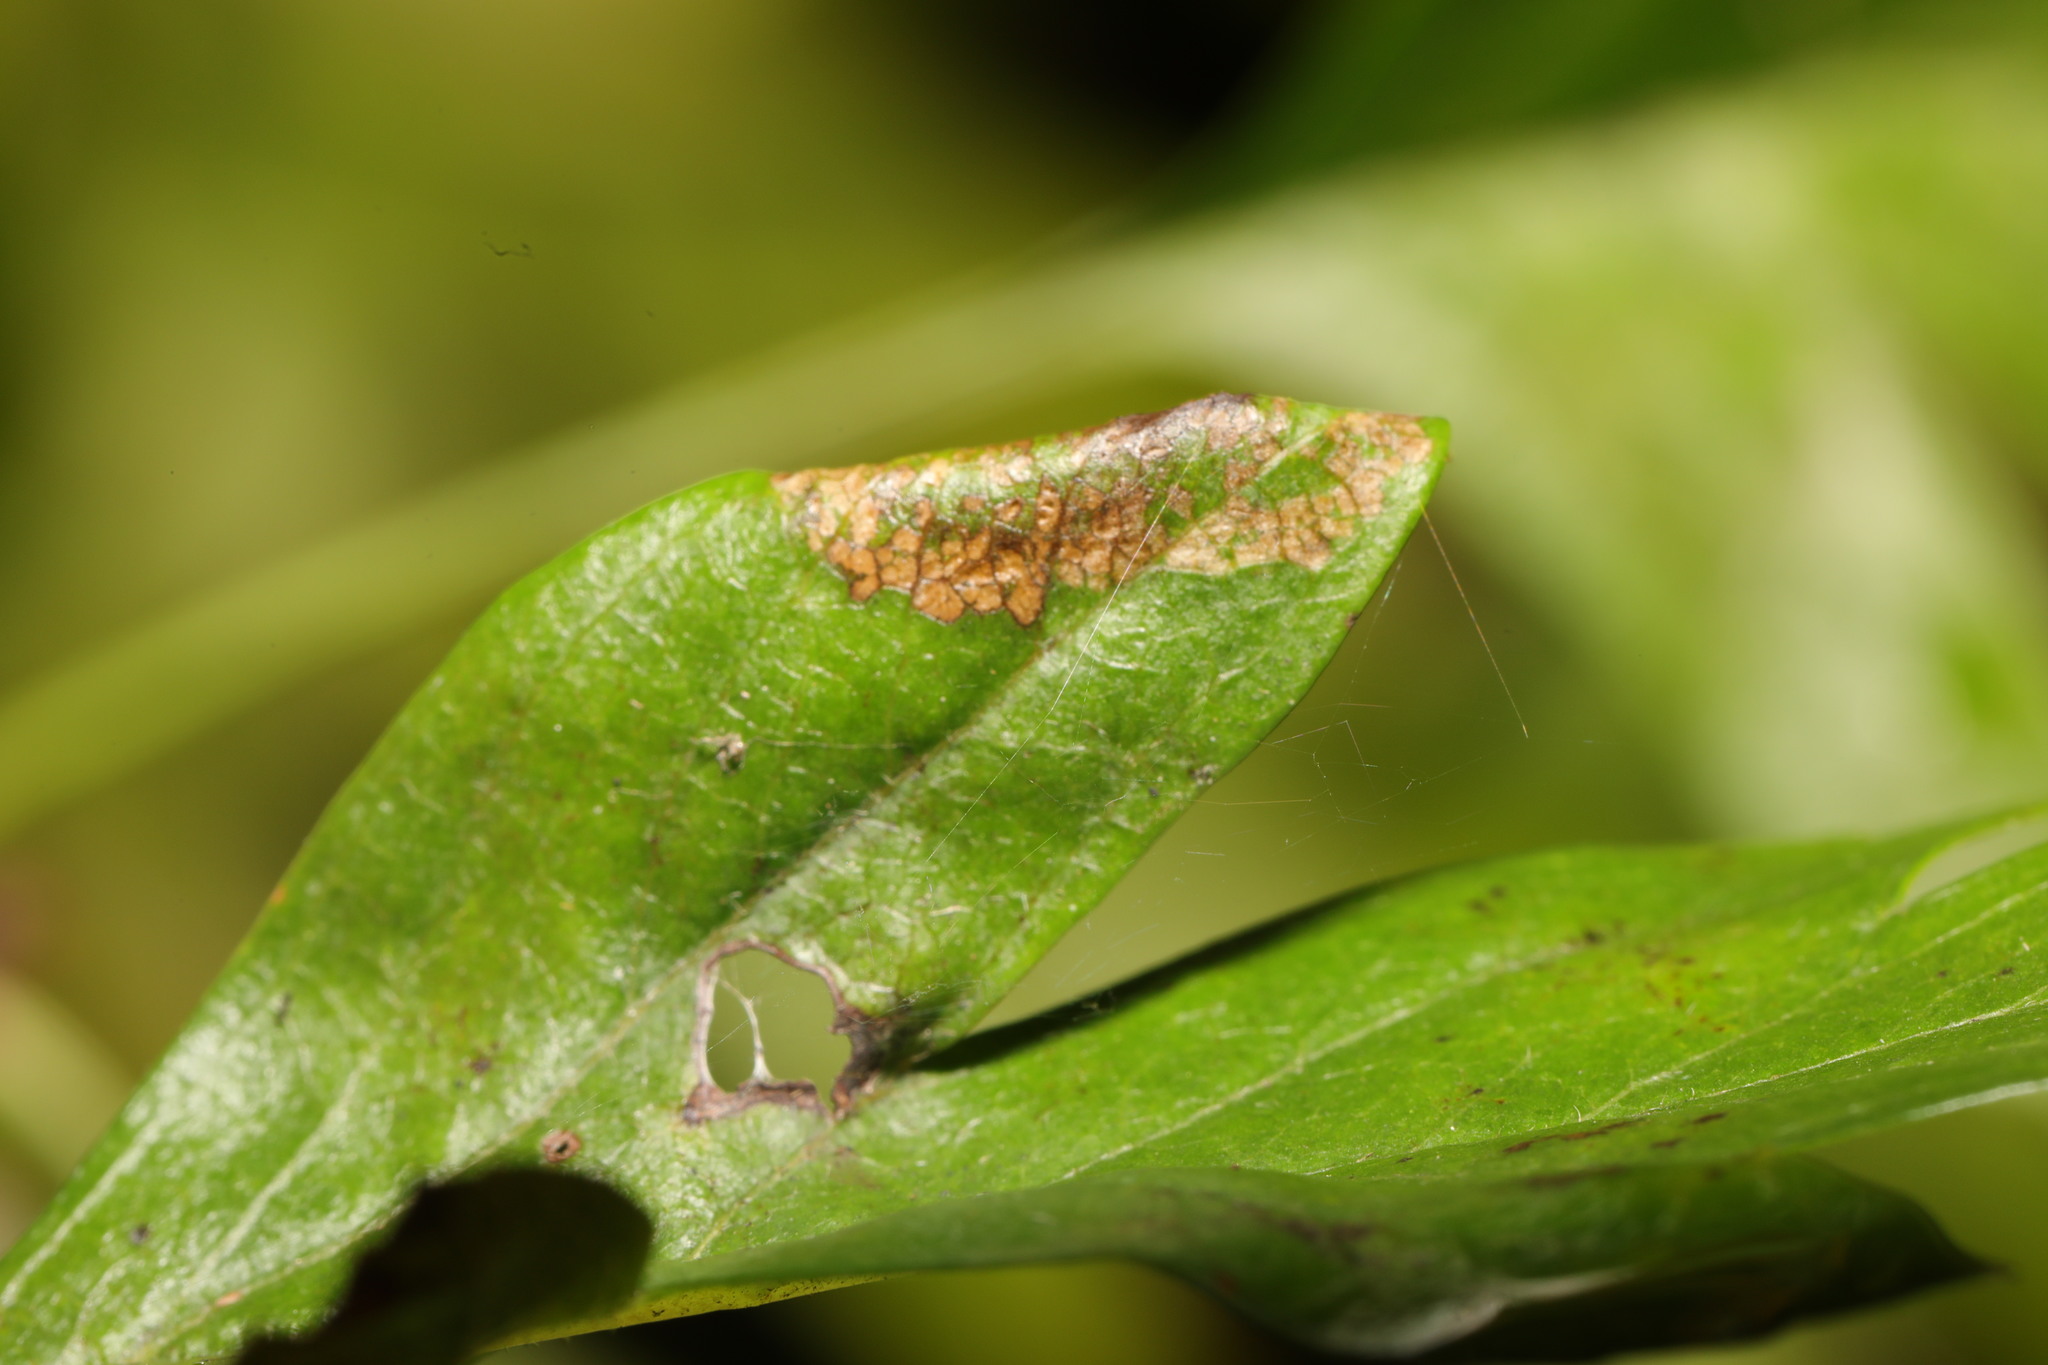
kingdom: Animalia
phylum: Arthropoda
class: Insecta
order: Lepidoptera
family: Gracillariidae
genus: Parornix
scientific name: Parornix anglicella
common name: Hawthorn slender
